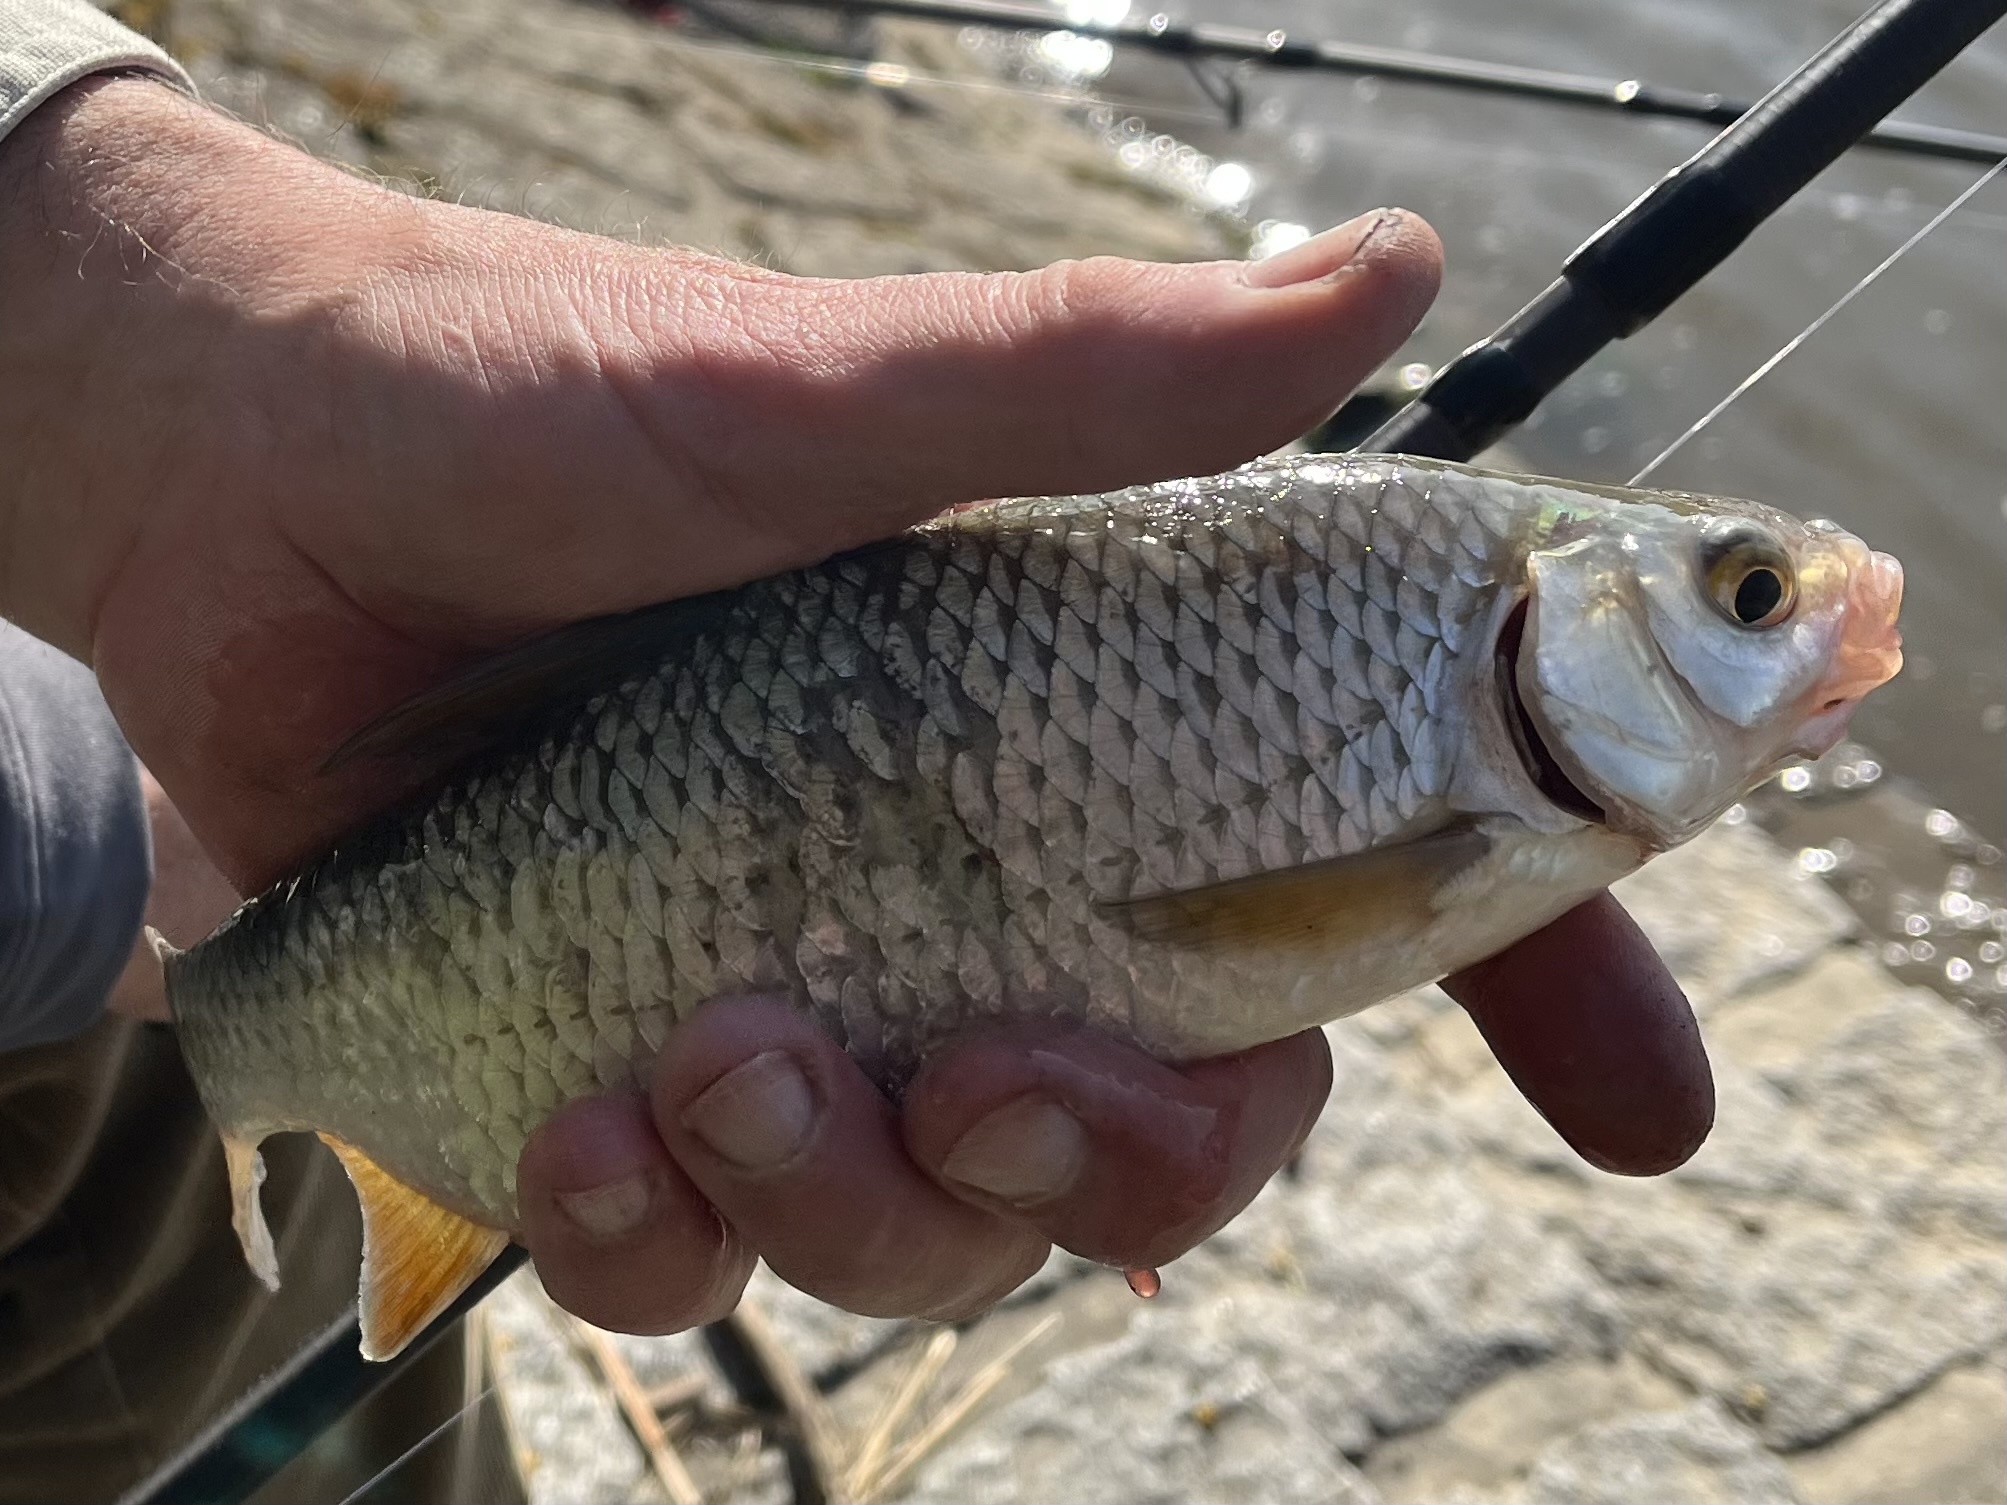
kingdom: Animalia
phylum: Chordata
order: Cypriniformes
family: Cyprinidae
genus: Rutilus
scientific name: Rutilus rutilus
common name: Roach
